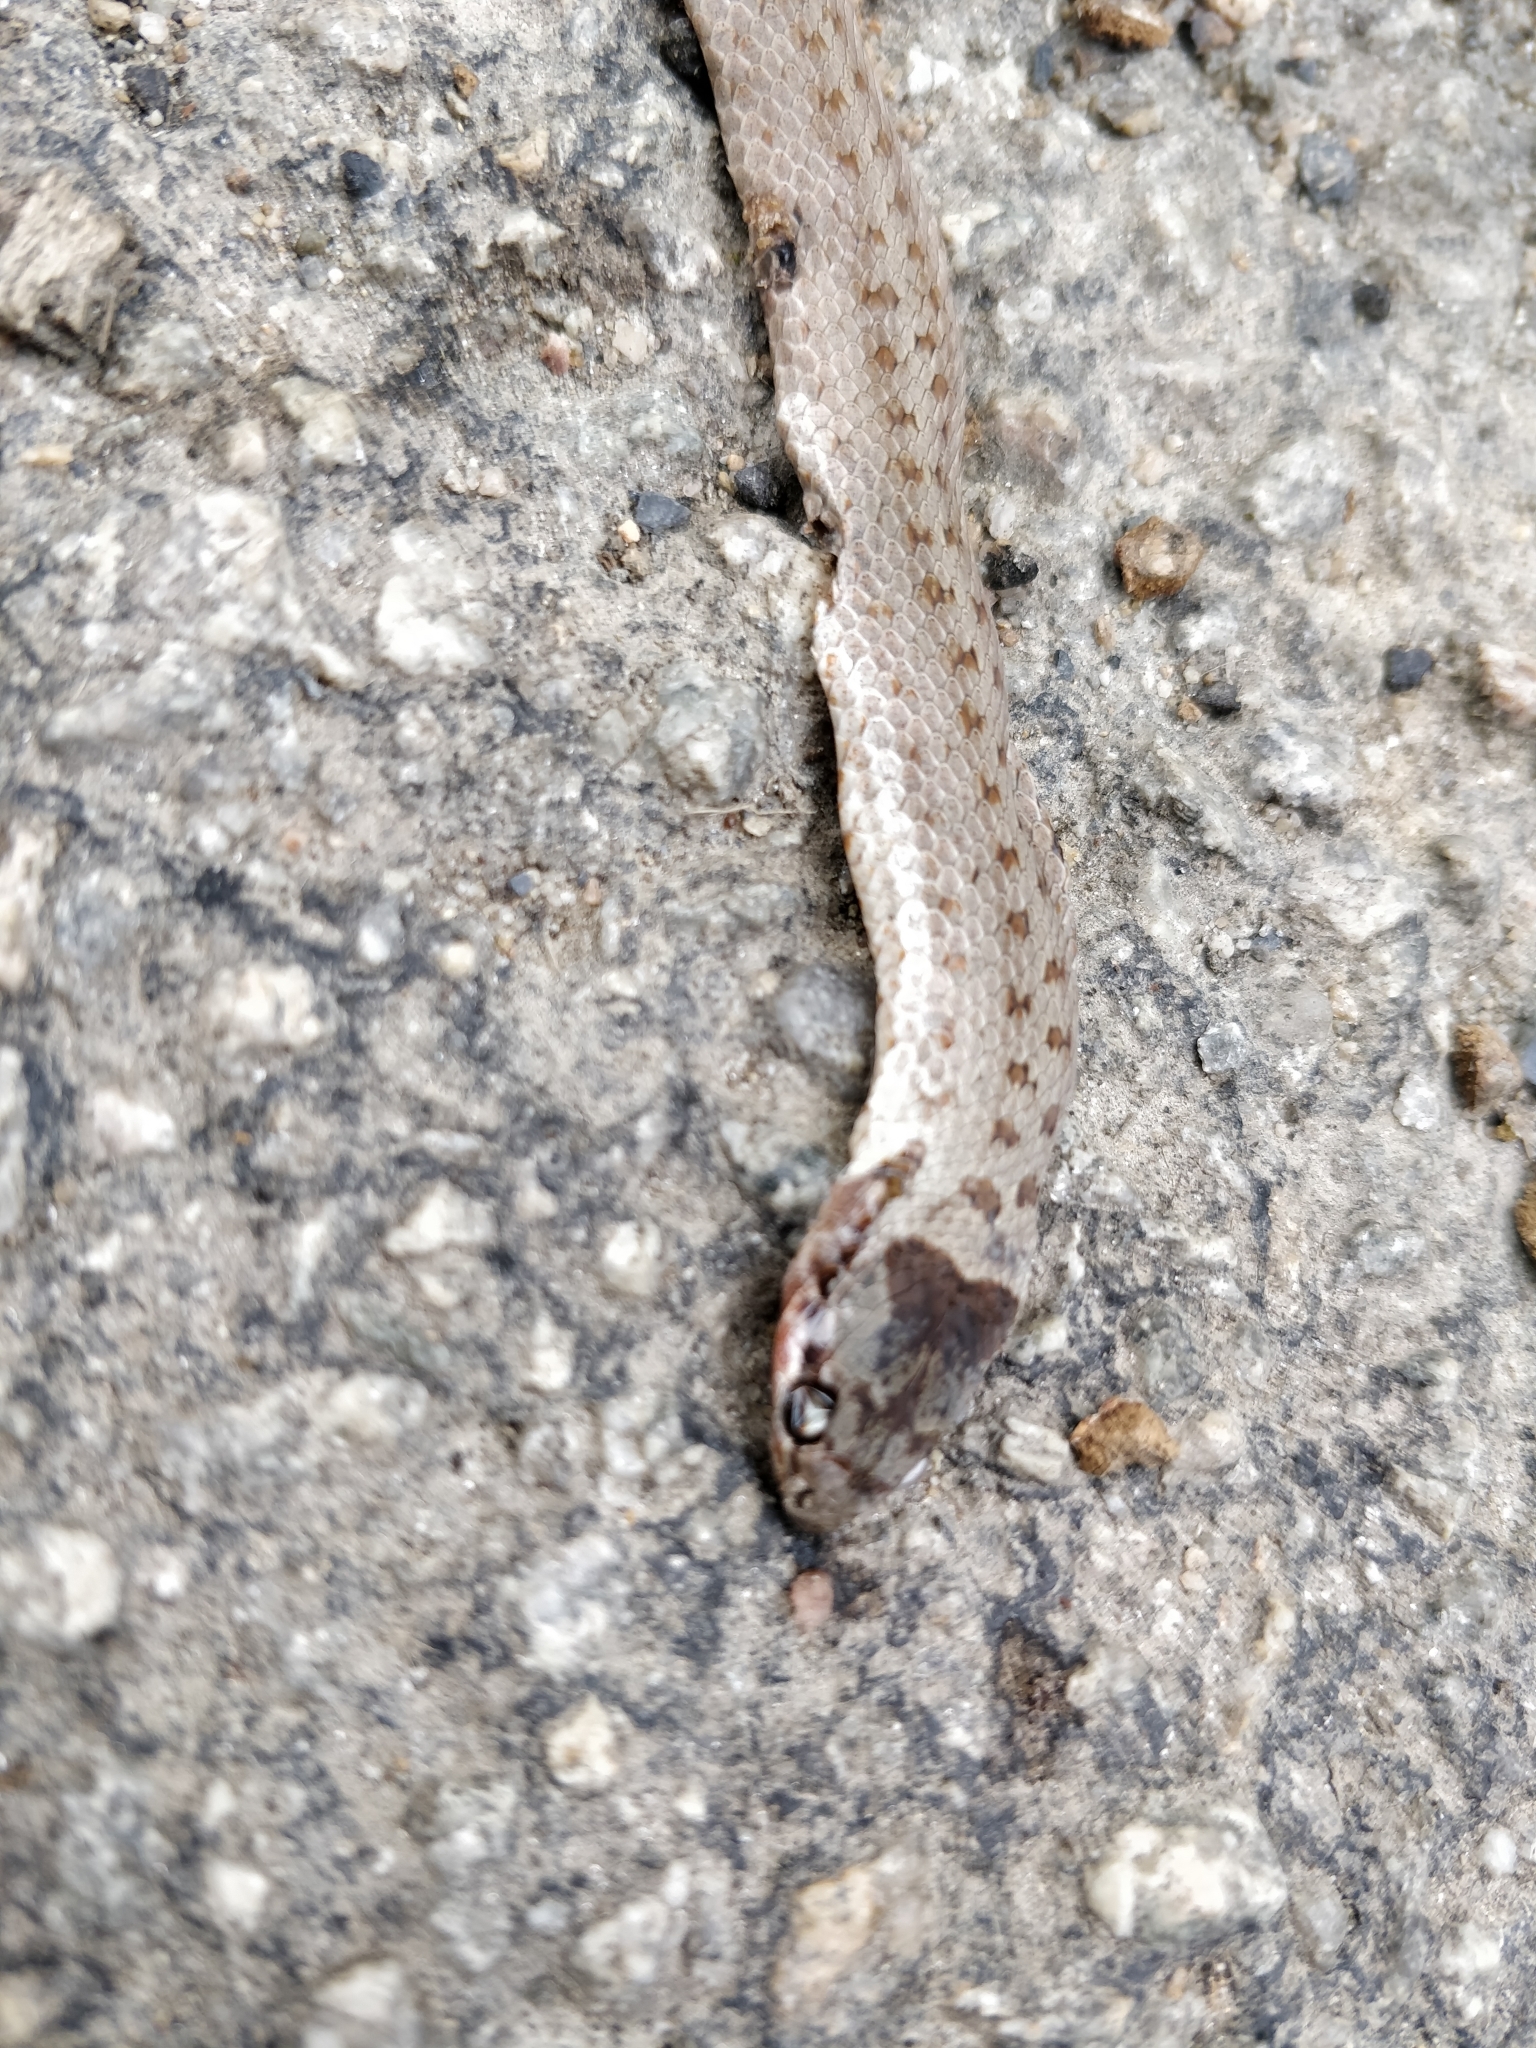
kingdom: Animalia
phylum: Chordata
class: Squamata
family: Colubridae
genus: Coronella
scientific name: Coronella austriaca
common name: Smooth snake
